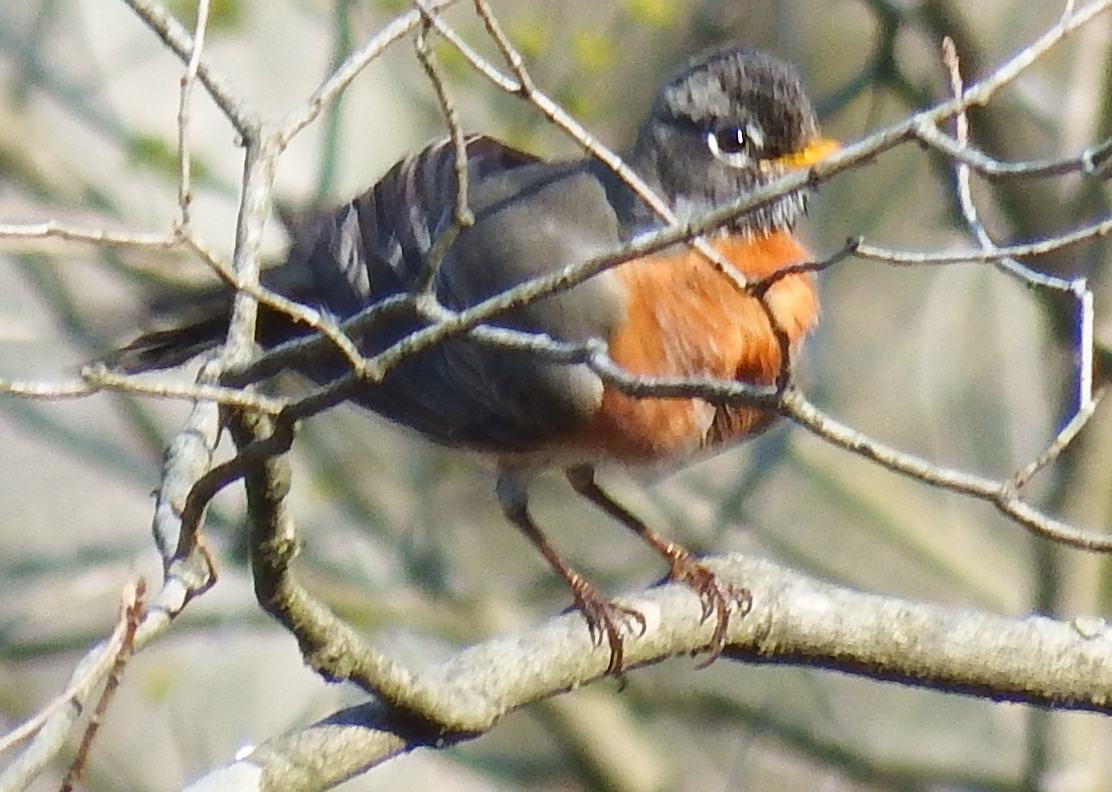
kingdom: Animalia
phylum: Chordata
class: Aves
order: Passeriformes
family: Turdidae
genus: Turdus
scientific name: Turdus migratorius
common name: American robin
